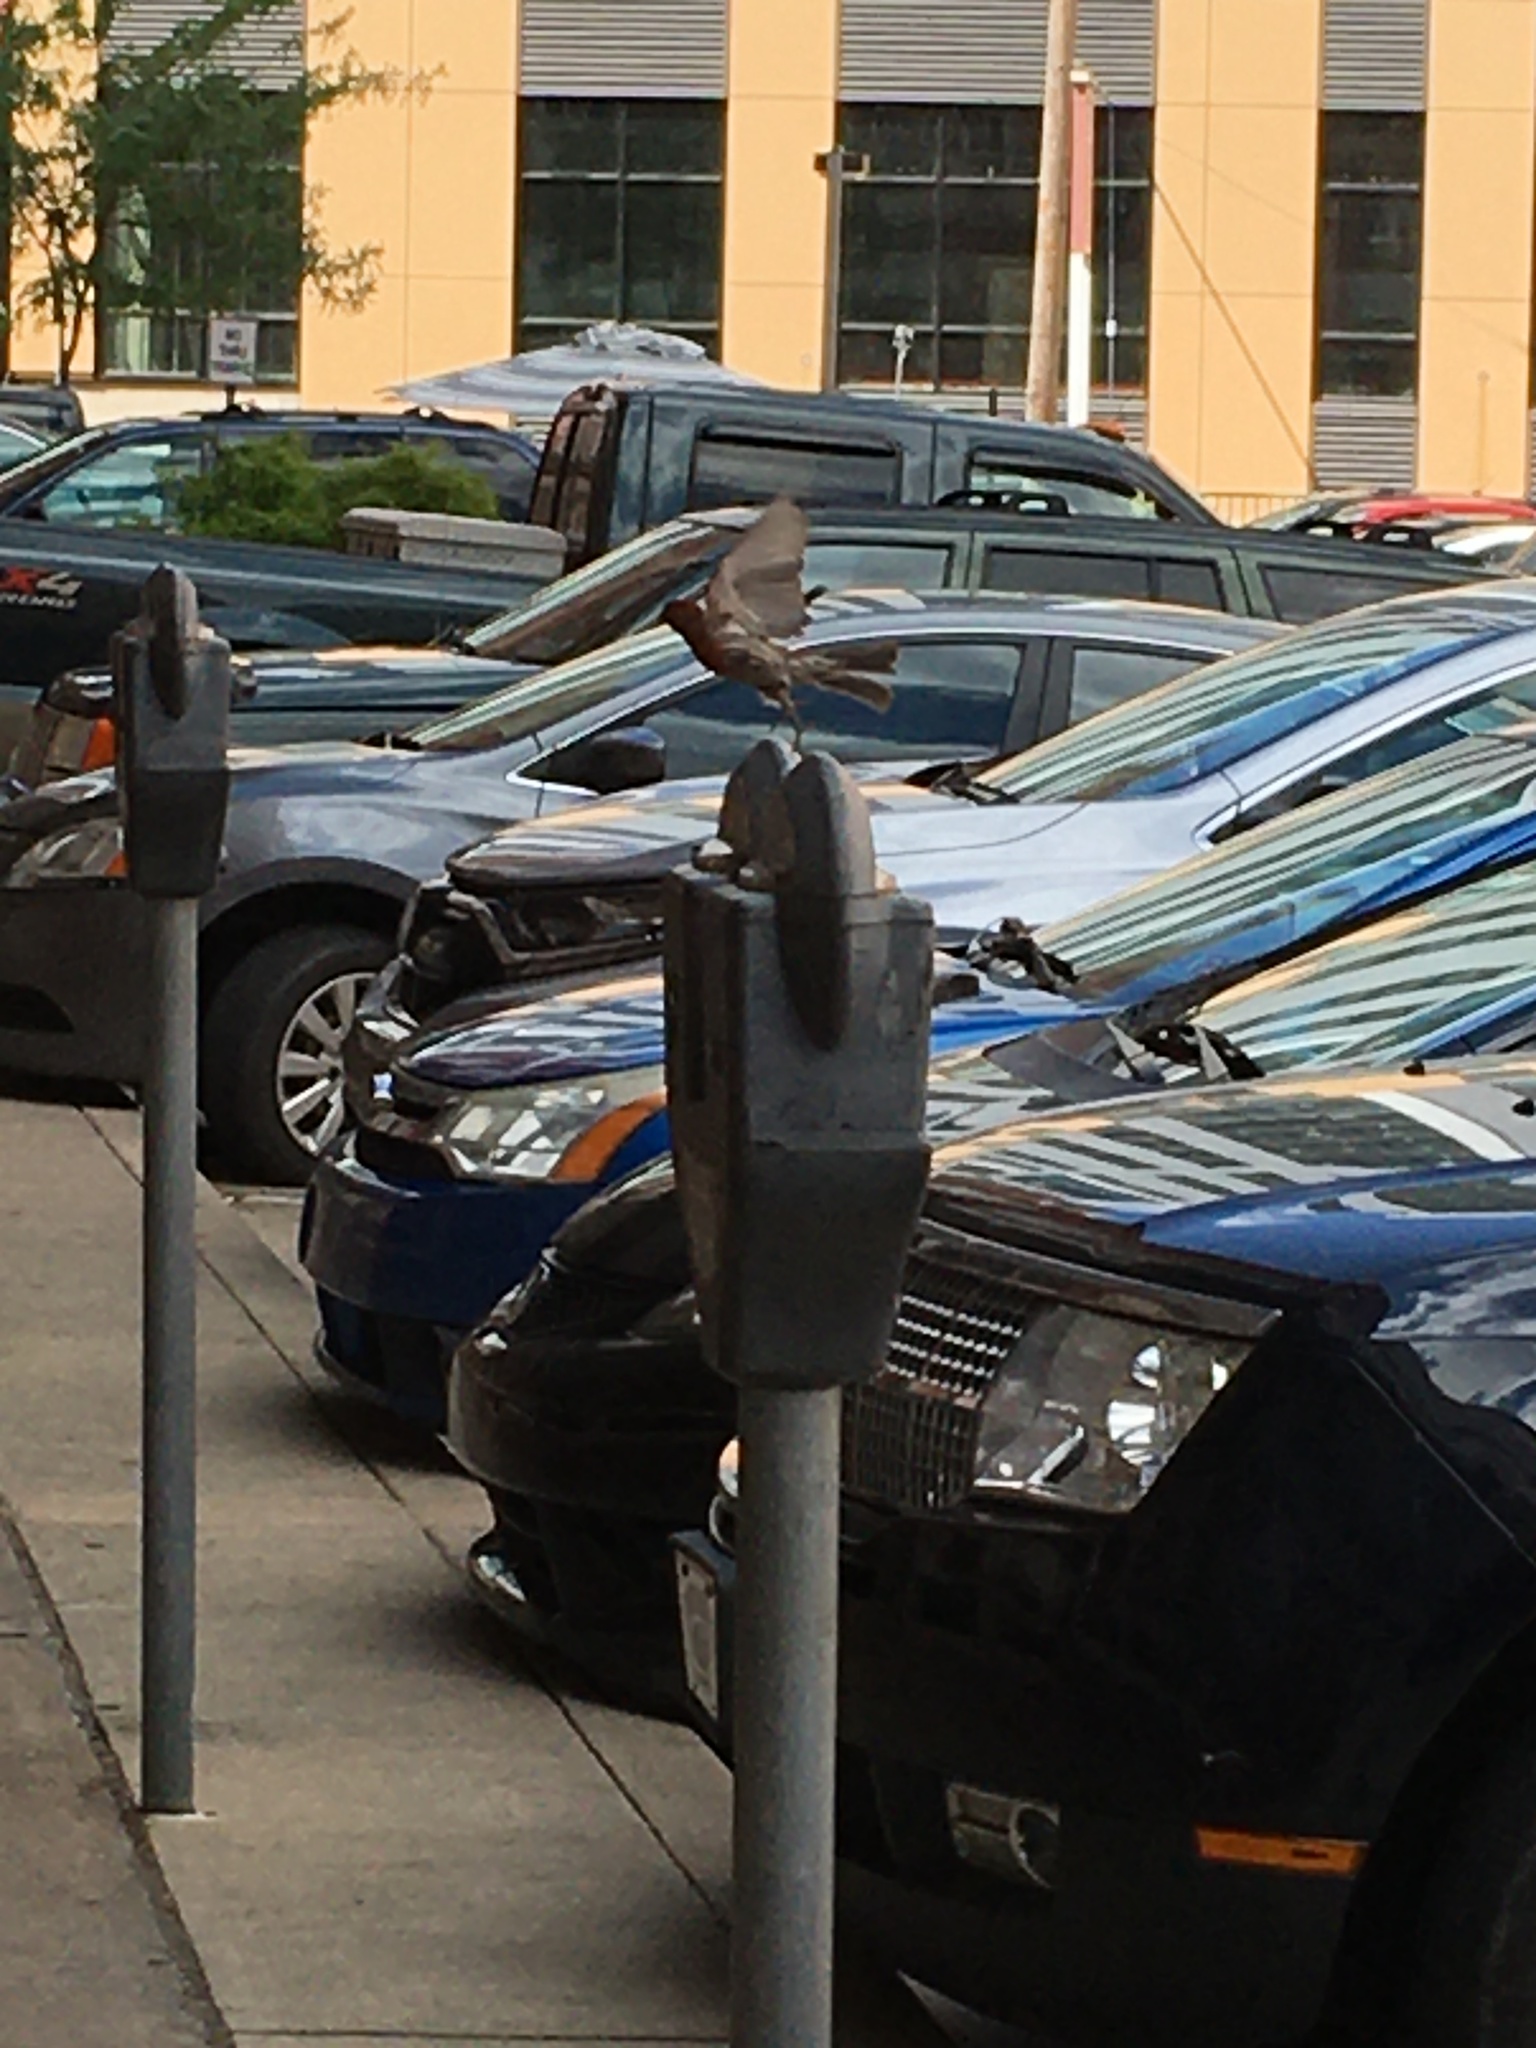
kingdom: Animalia
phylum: Chordata
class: Aves
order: Passeriformes
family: Fringillidae
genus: Haemorhous
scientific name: Haemorhous mexicanus
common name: House finch
